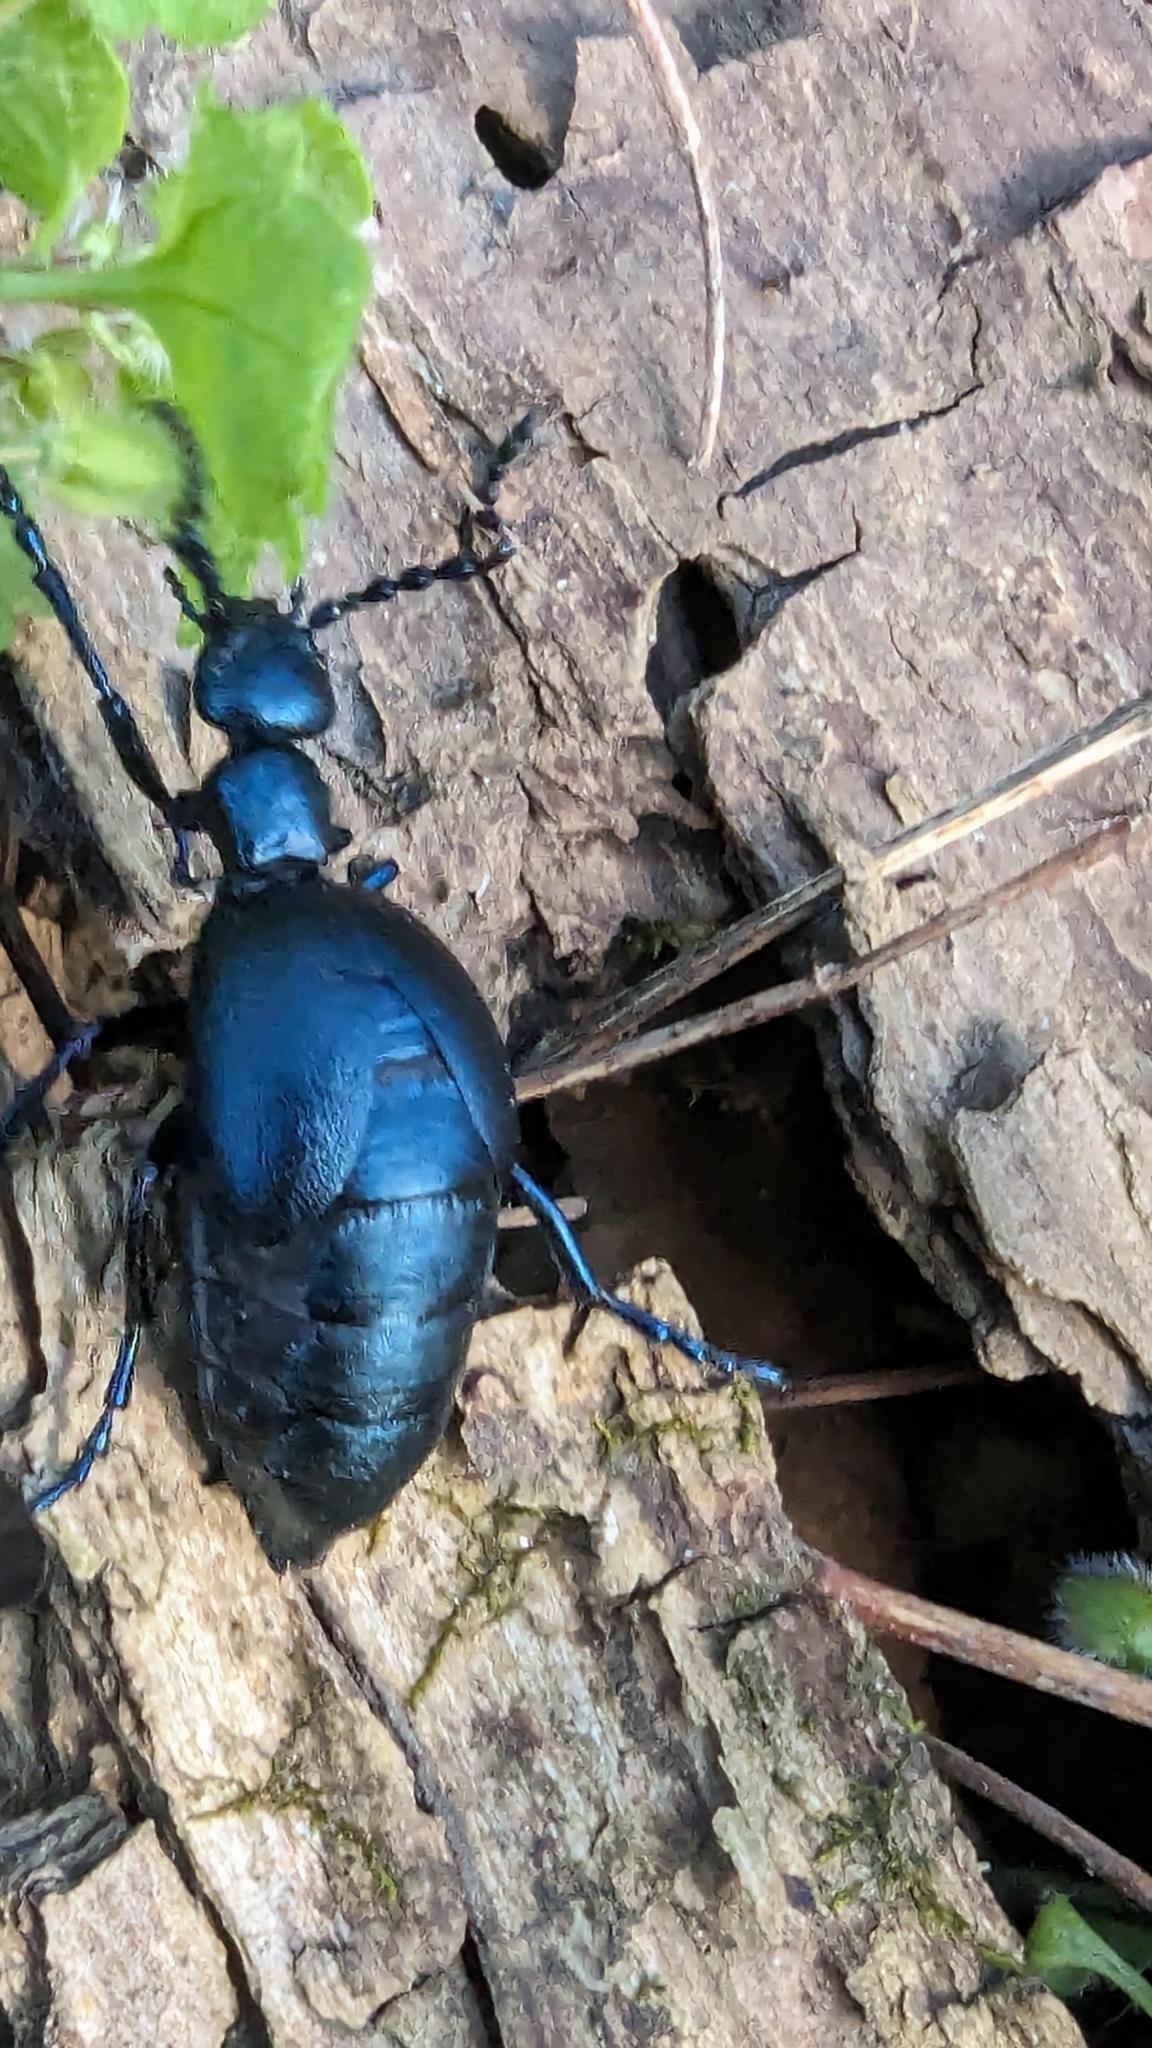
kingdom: Animalia
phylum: Arthropoda
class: Insecta
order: Coleoptera
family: Meloidae
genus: Meloe
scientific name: Meloe violaceus
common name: Violet oil-beetle
